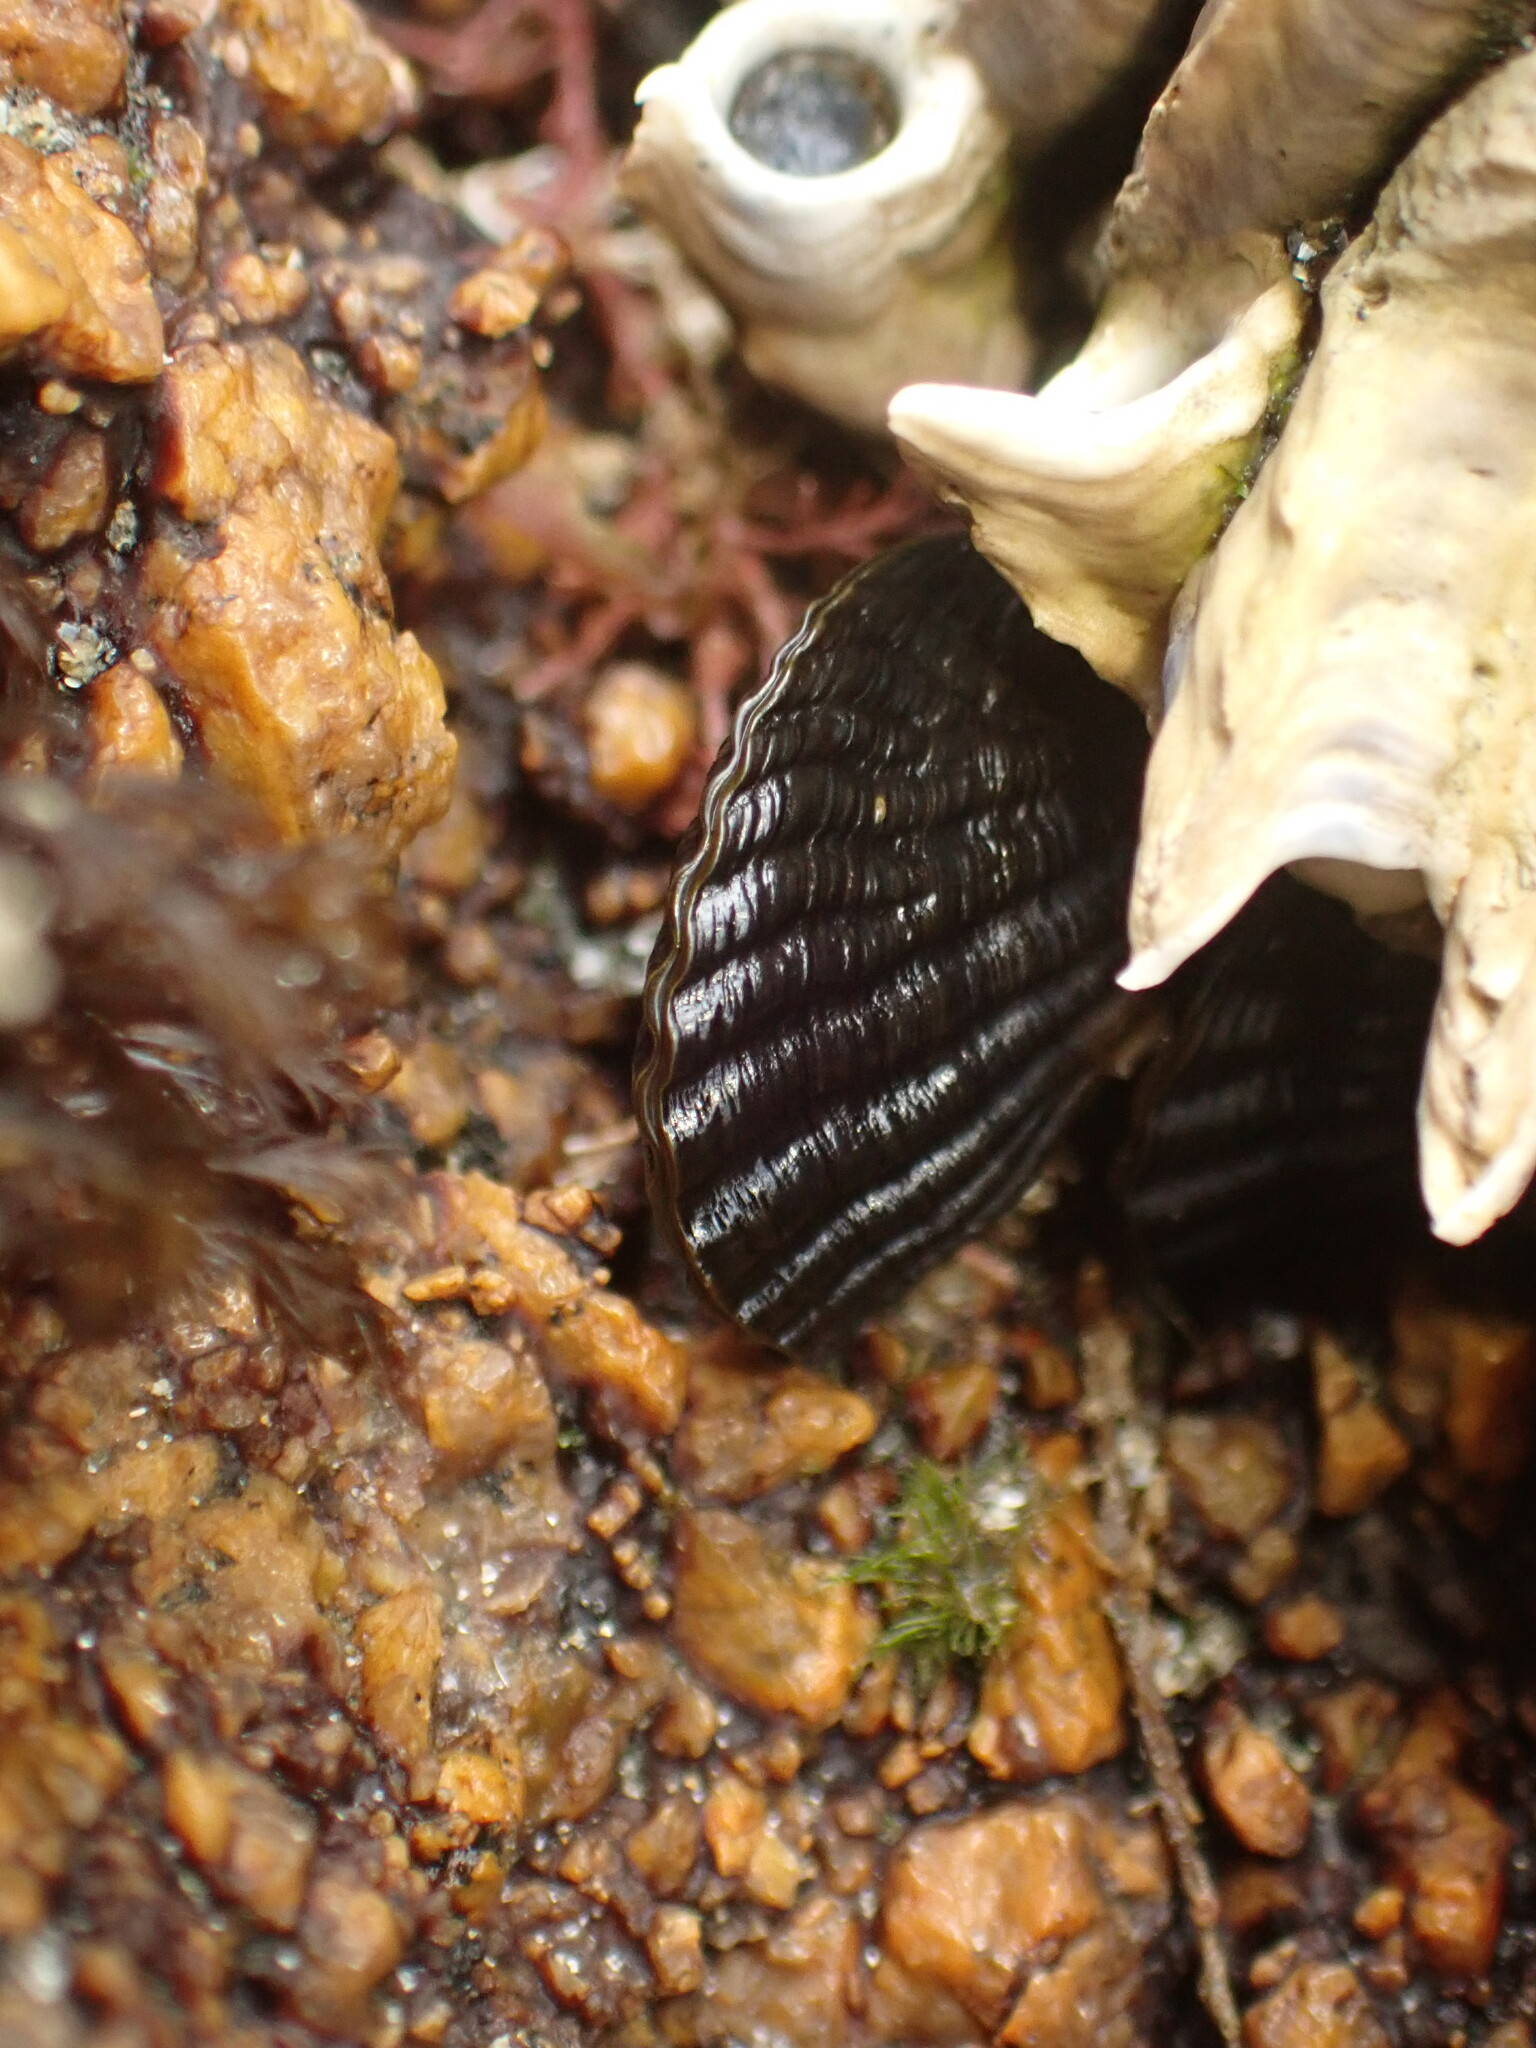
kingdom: Animalia
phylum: Mollusca
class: Bivalvia
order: Mytilida
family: Mytilidae
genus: Aulacomya
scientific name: Aulacomya maoriana
